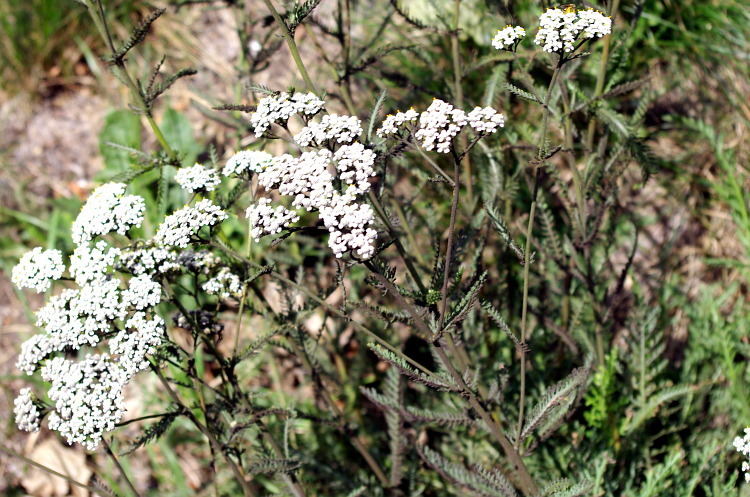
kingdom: Plantae
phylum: Tracheophyta
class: Magnoliopsida
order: Asterales
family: Asteraceae
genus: Achillea
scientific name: Achillea millefolium
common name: Yarrow
